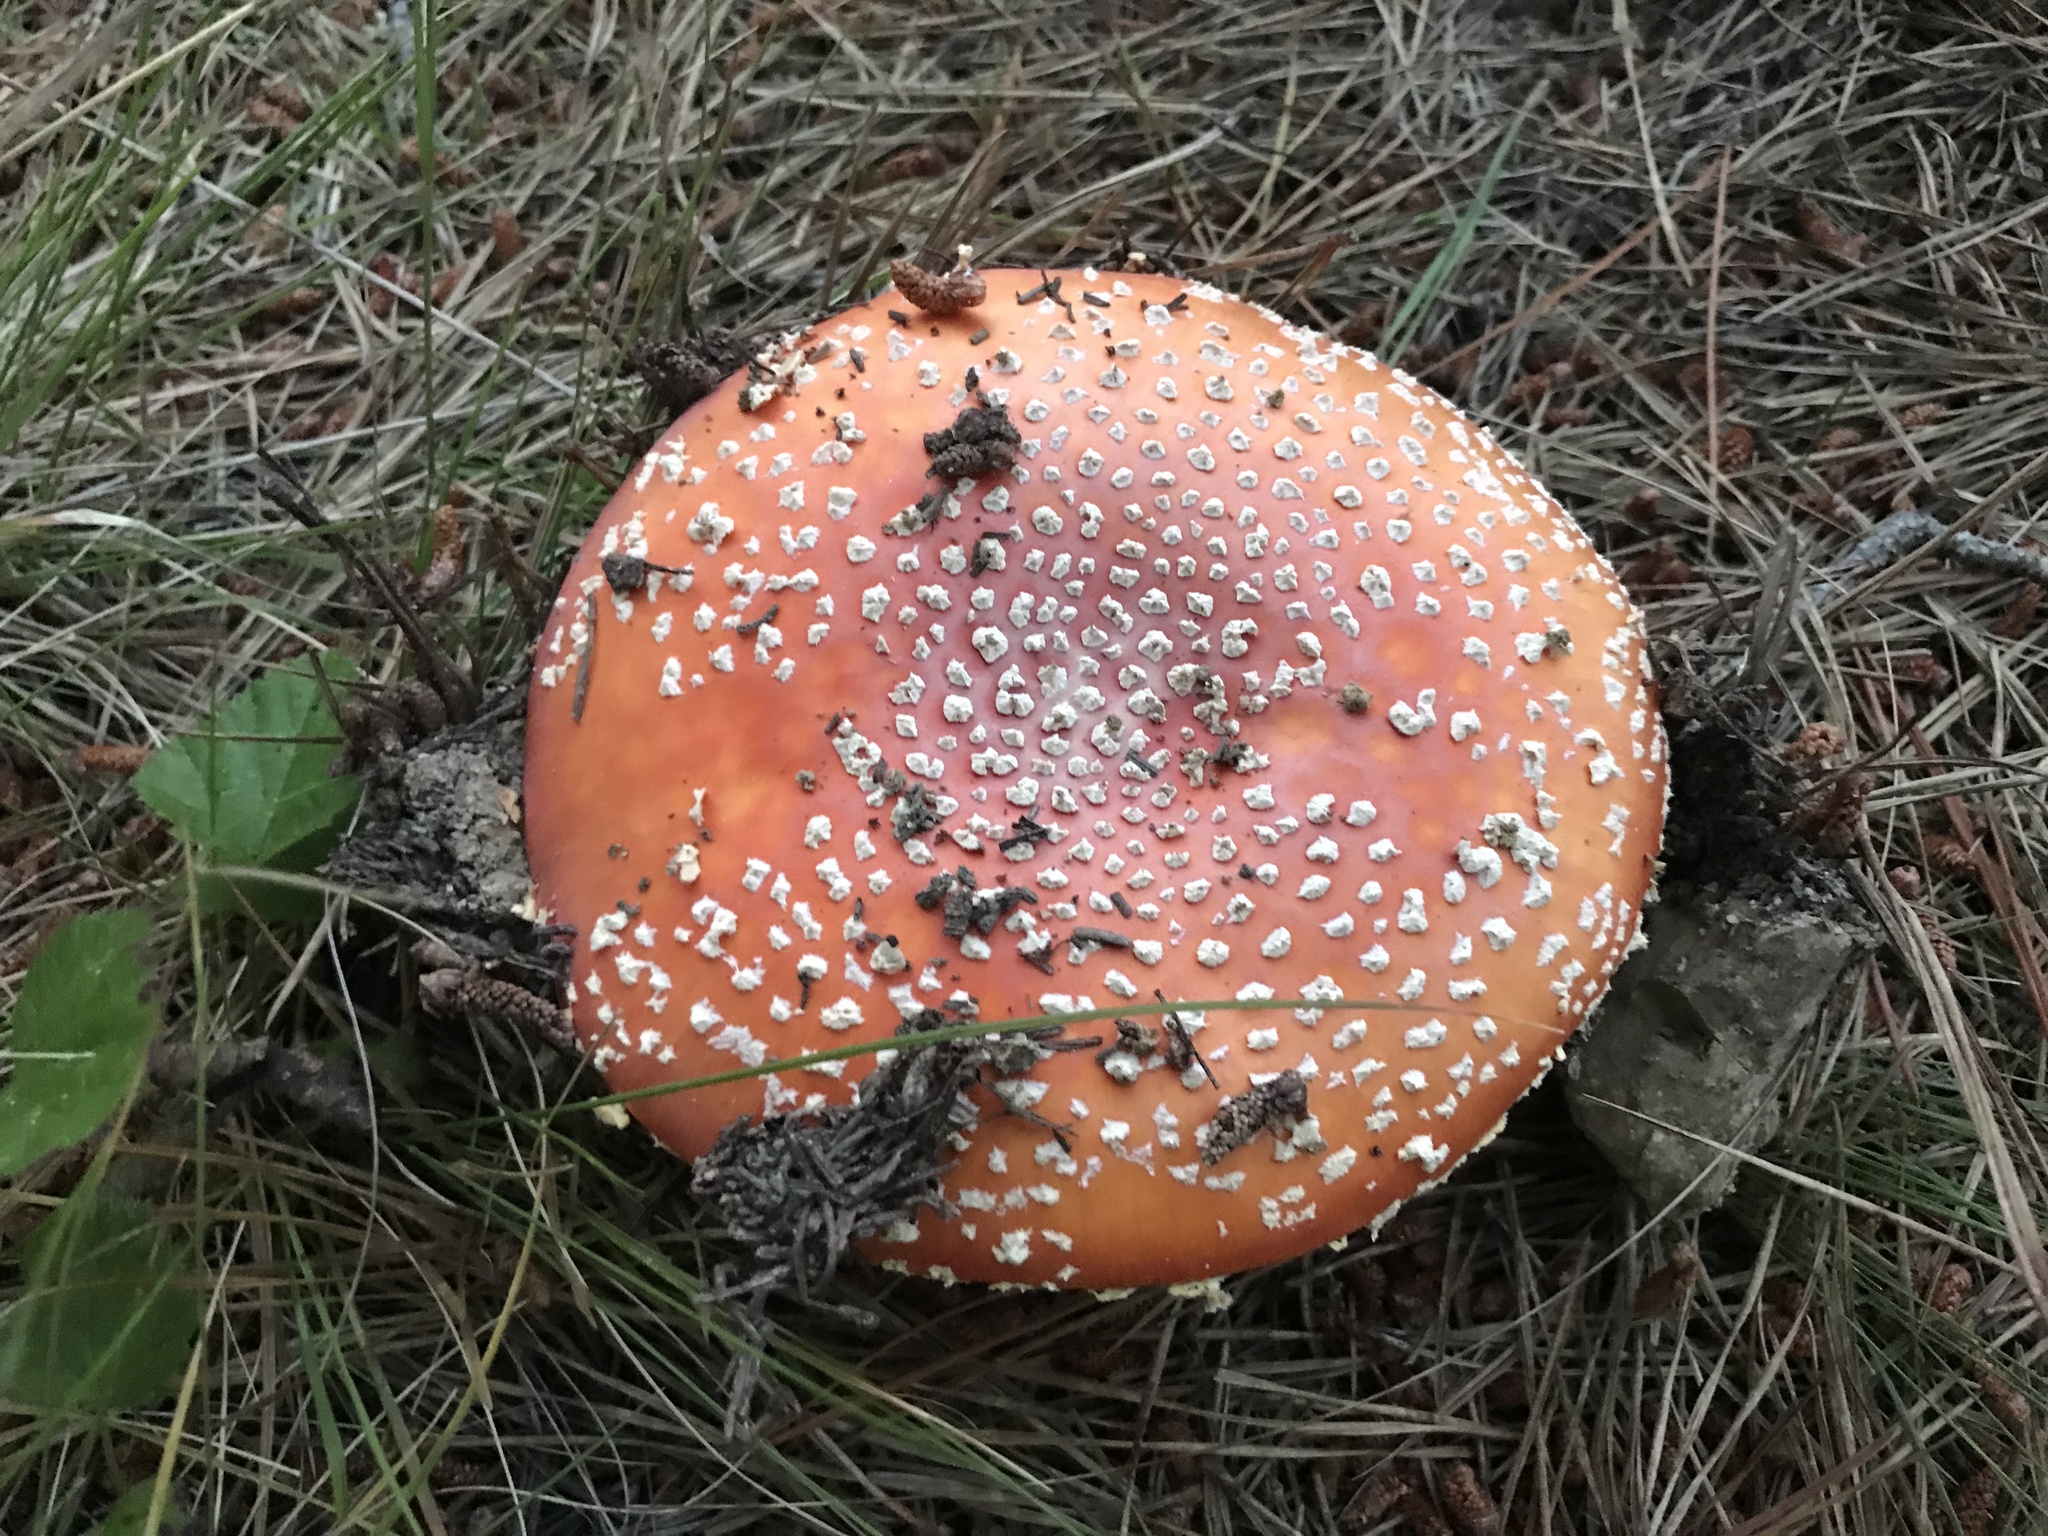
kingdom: Fungi
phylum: Basidiomycota
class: Agaricomycetes
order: Agaricales
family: Amanitaceae
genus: Amanita
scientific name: Amanita muscaria
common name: Fly agaric
